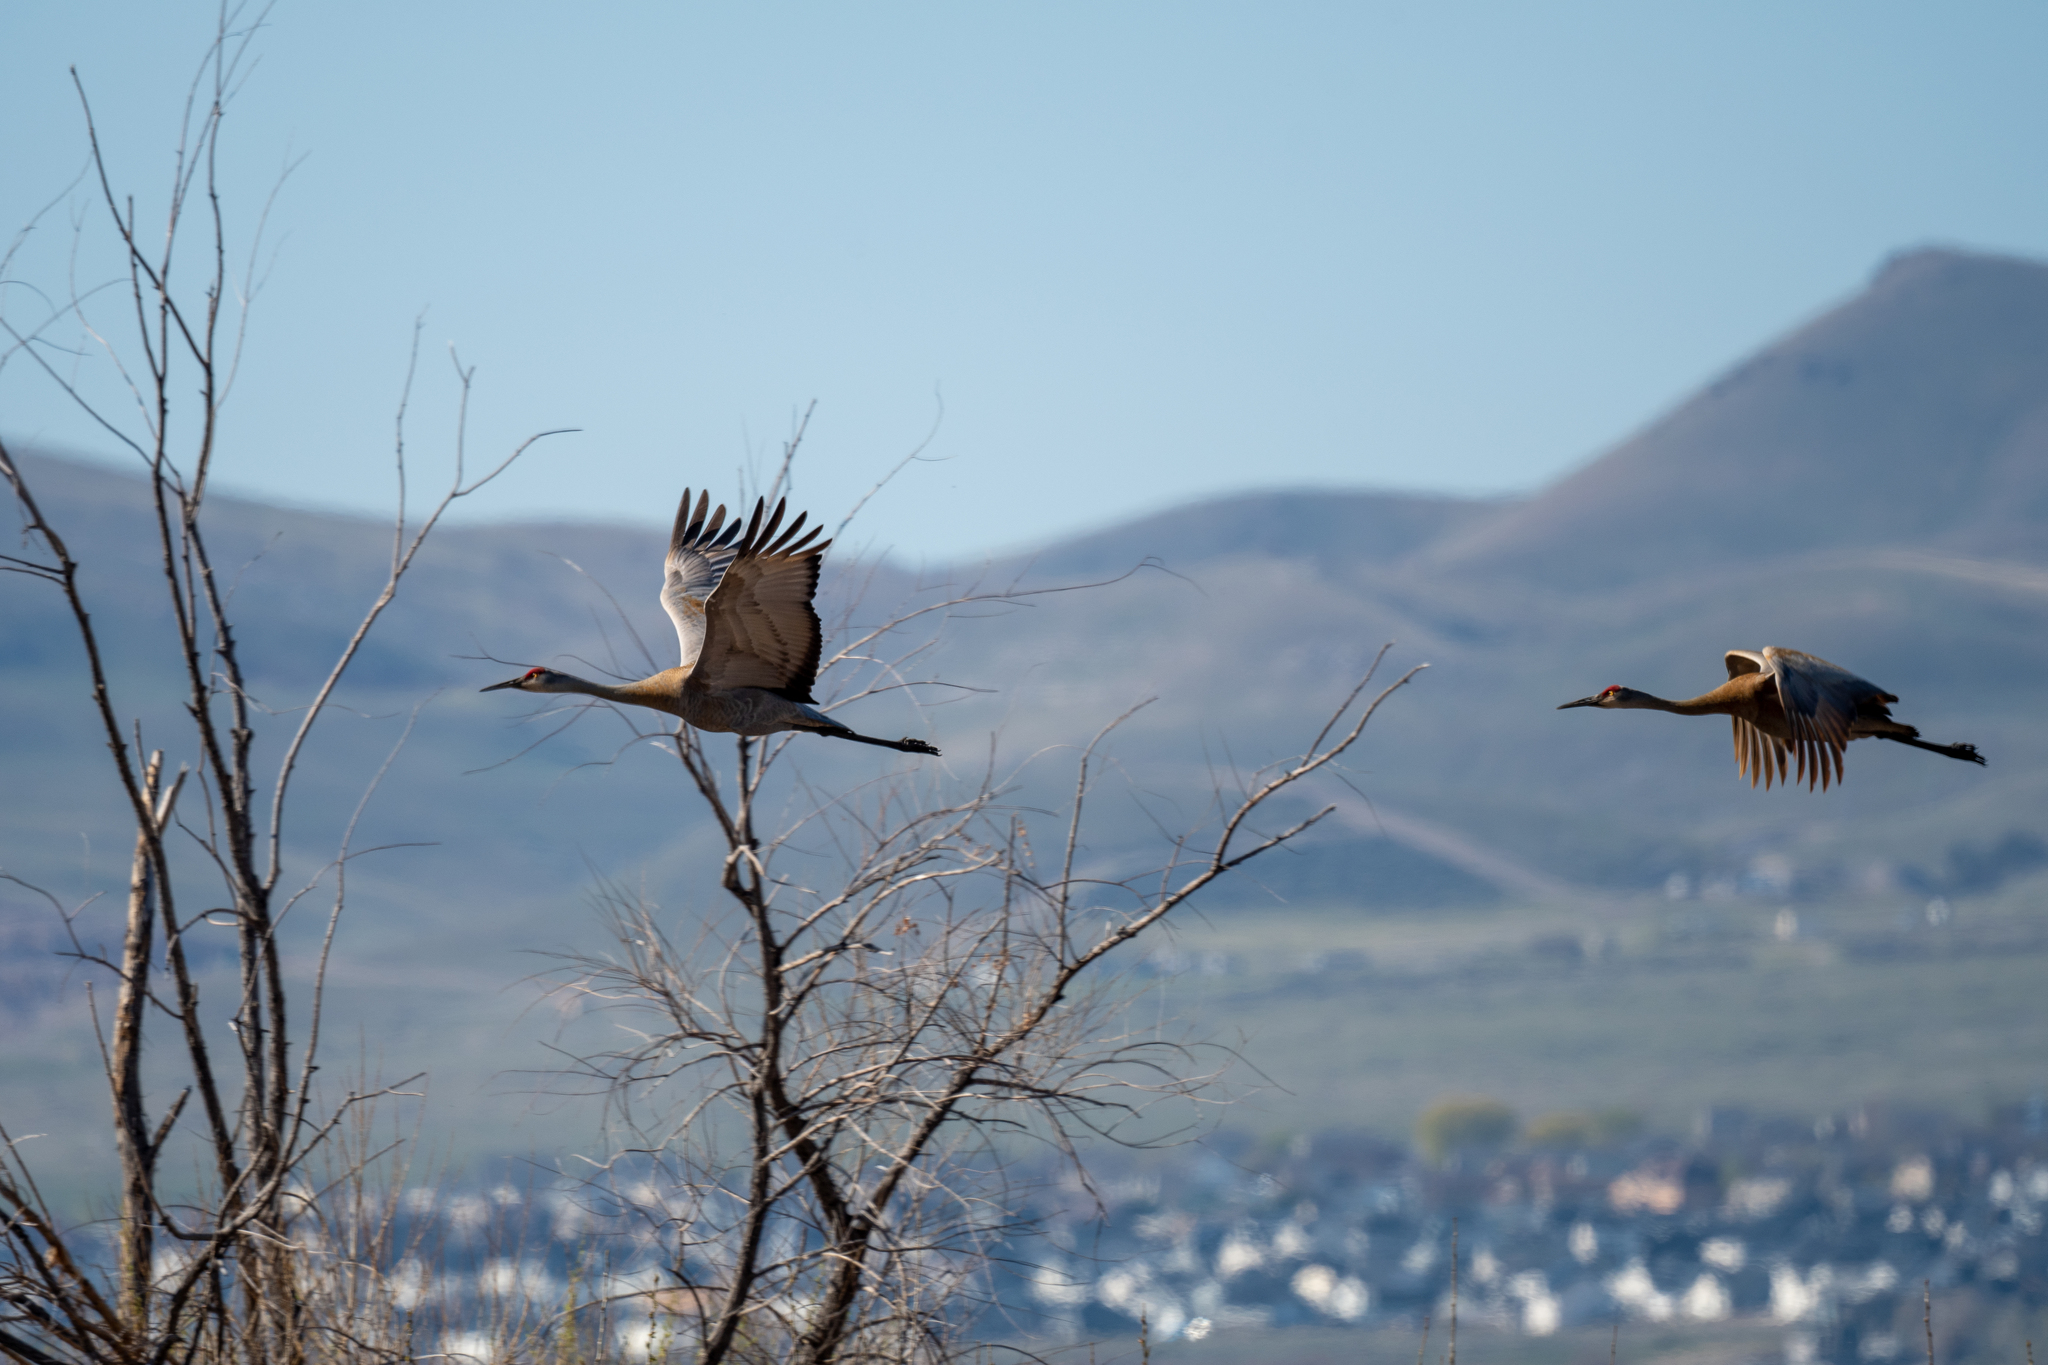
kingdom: Animalia
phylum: Chordata
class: Aves
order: Gruiformes
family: Gruidae
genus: Grus
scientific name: Grus canadensis
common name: Sandhill crane
